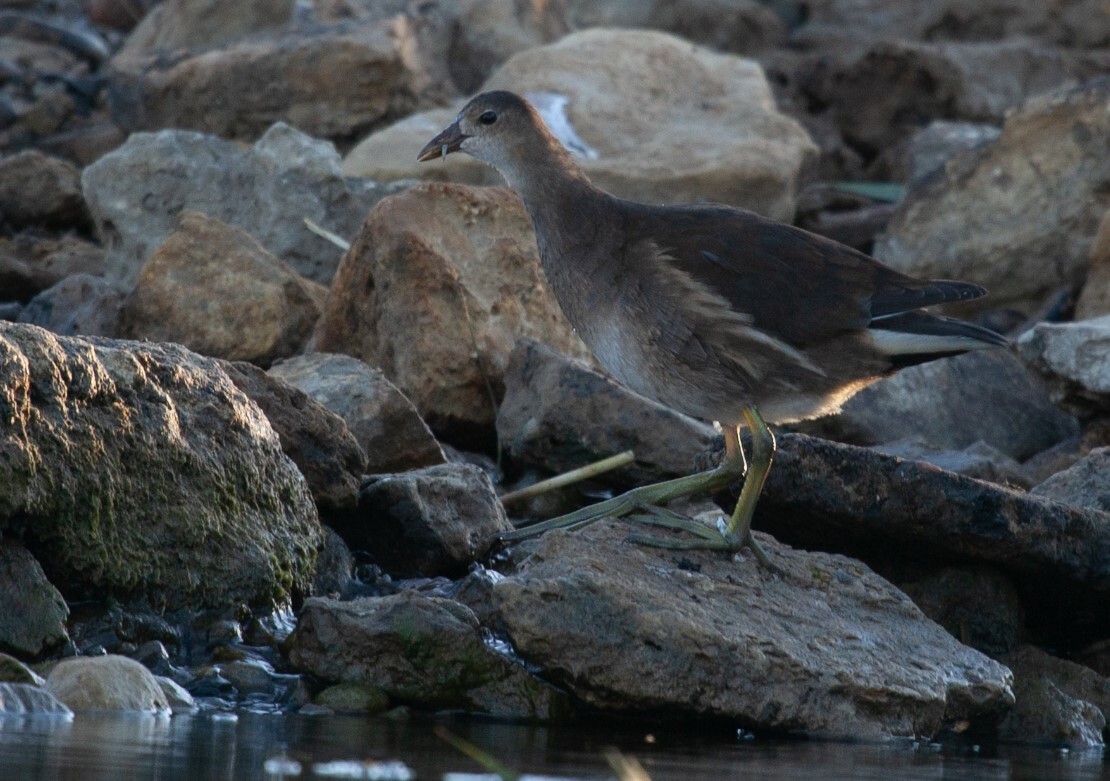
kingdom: Animalia
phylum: Chordata
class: Aves
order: Gruiformes
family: Rallidae
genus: Gallinula
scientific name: Gallinula chloropus
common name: Common moorhen
